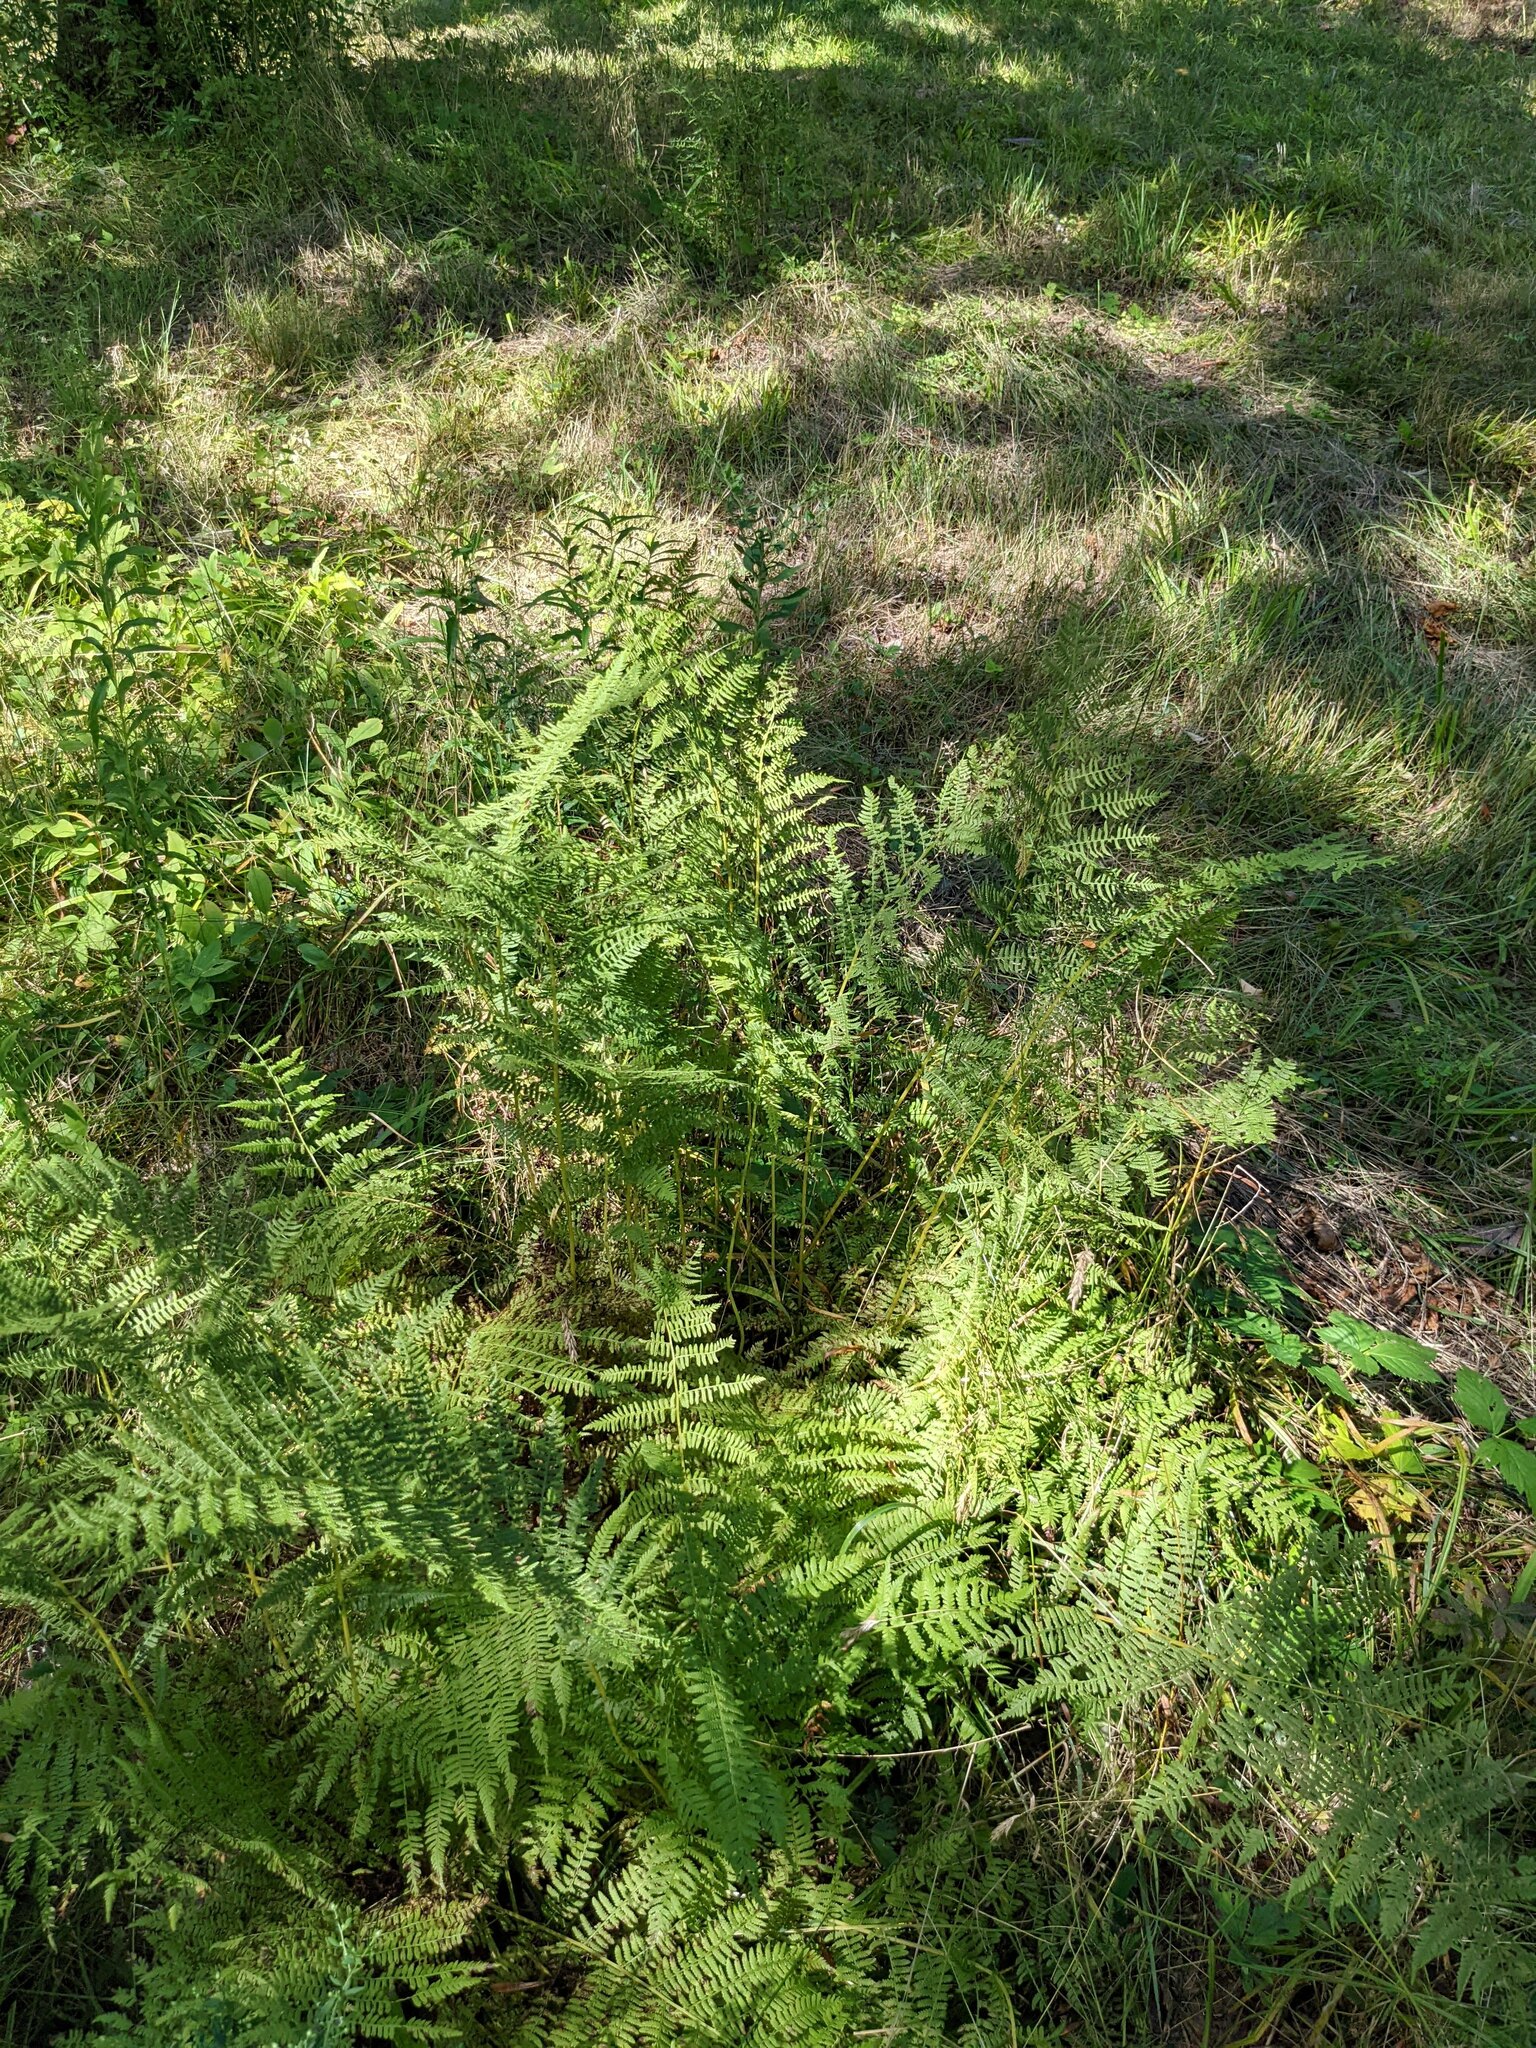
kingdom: Plantae
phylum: Tracheophyta
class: Polypodiopsida
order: Polypodiales
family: Athyriaceae
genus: Athyrium
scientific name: Athyrium angustum
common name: Northern lady fern
